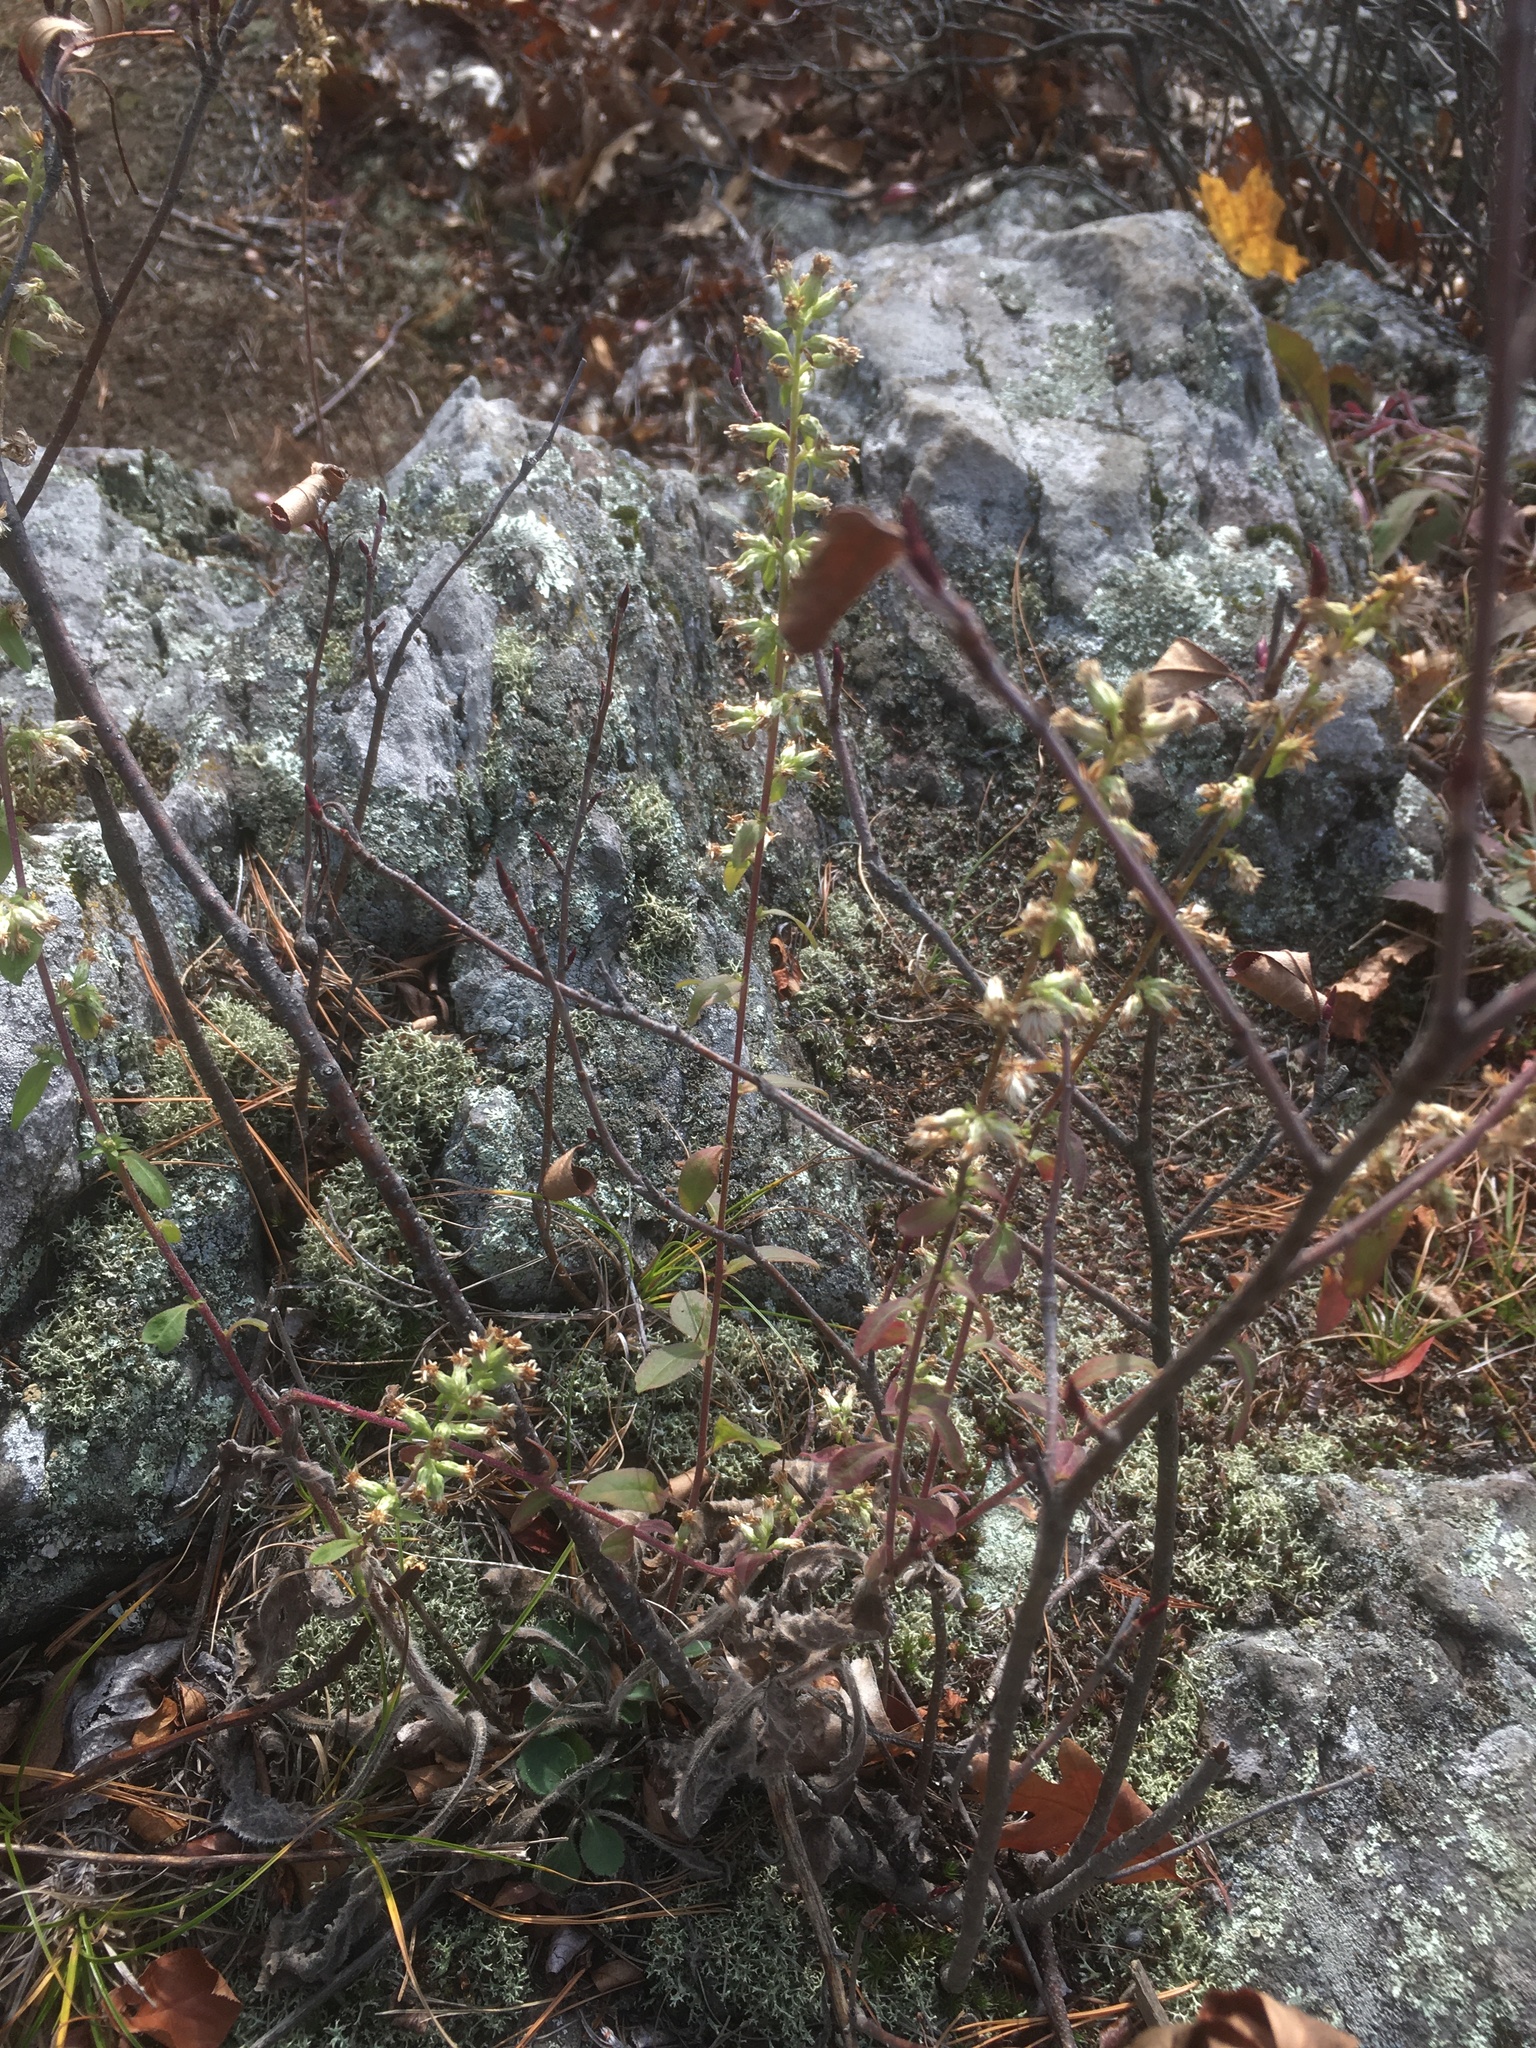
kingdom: Plantae
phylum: Tracheophyta
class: Magnoliopsida
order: Asterales
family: Asteraceae
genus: Solidago
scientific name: Solidago bicolor
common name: Silverrod
